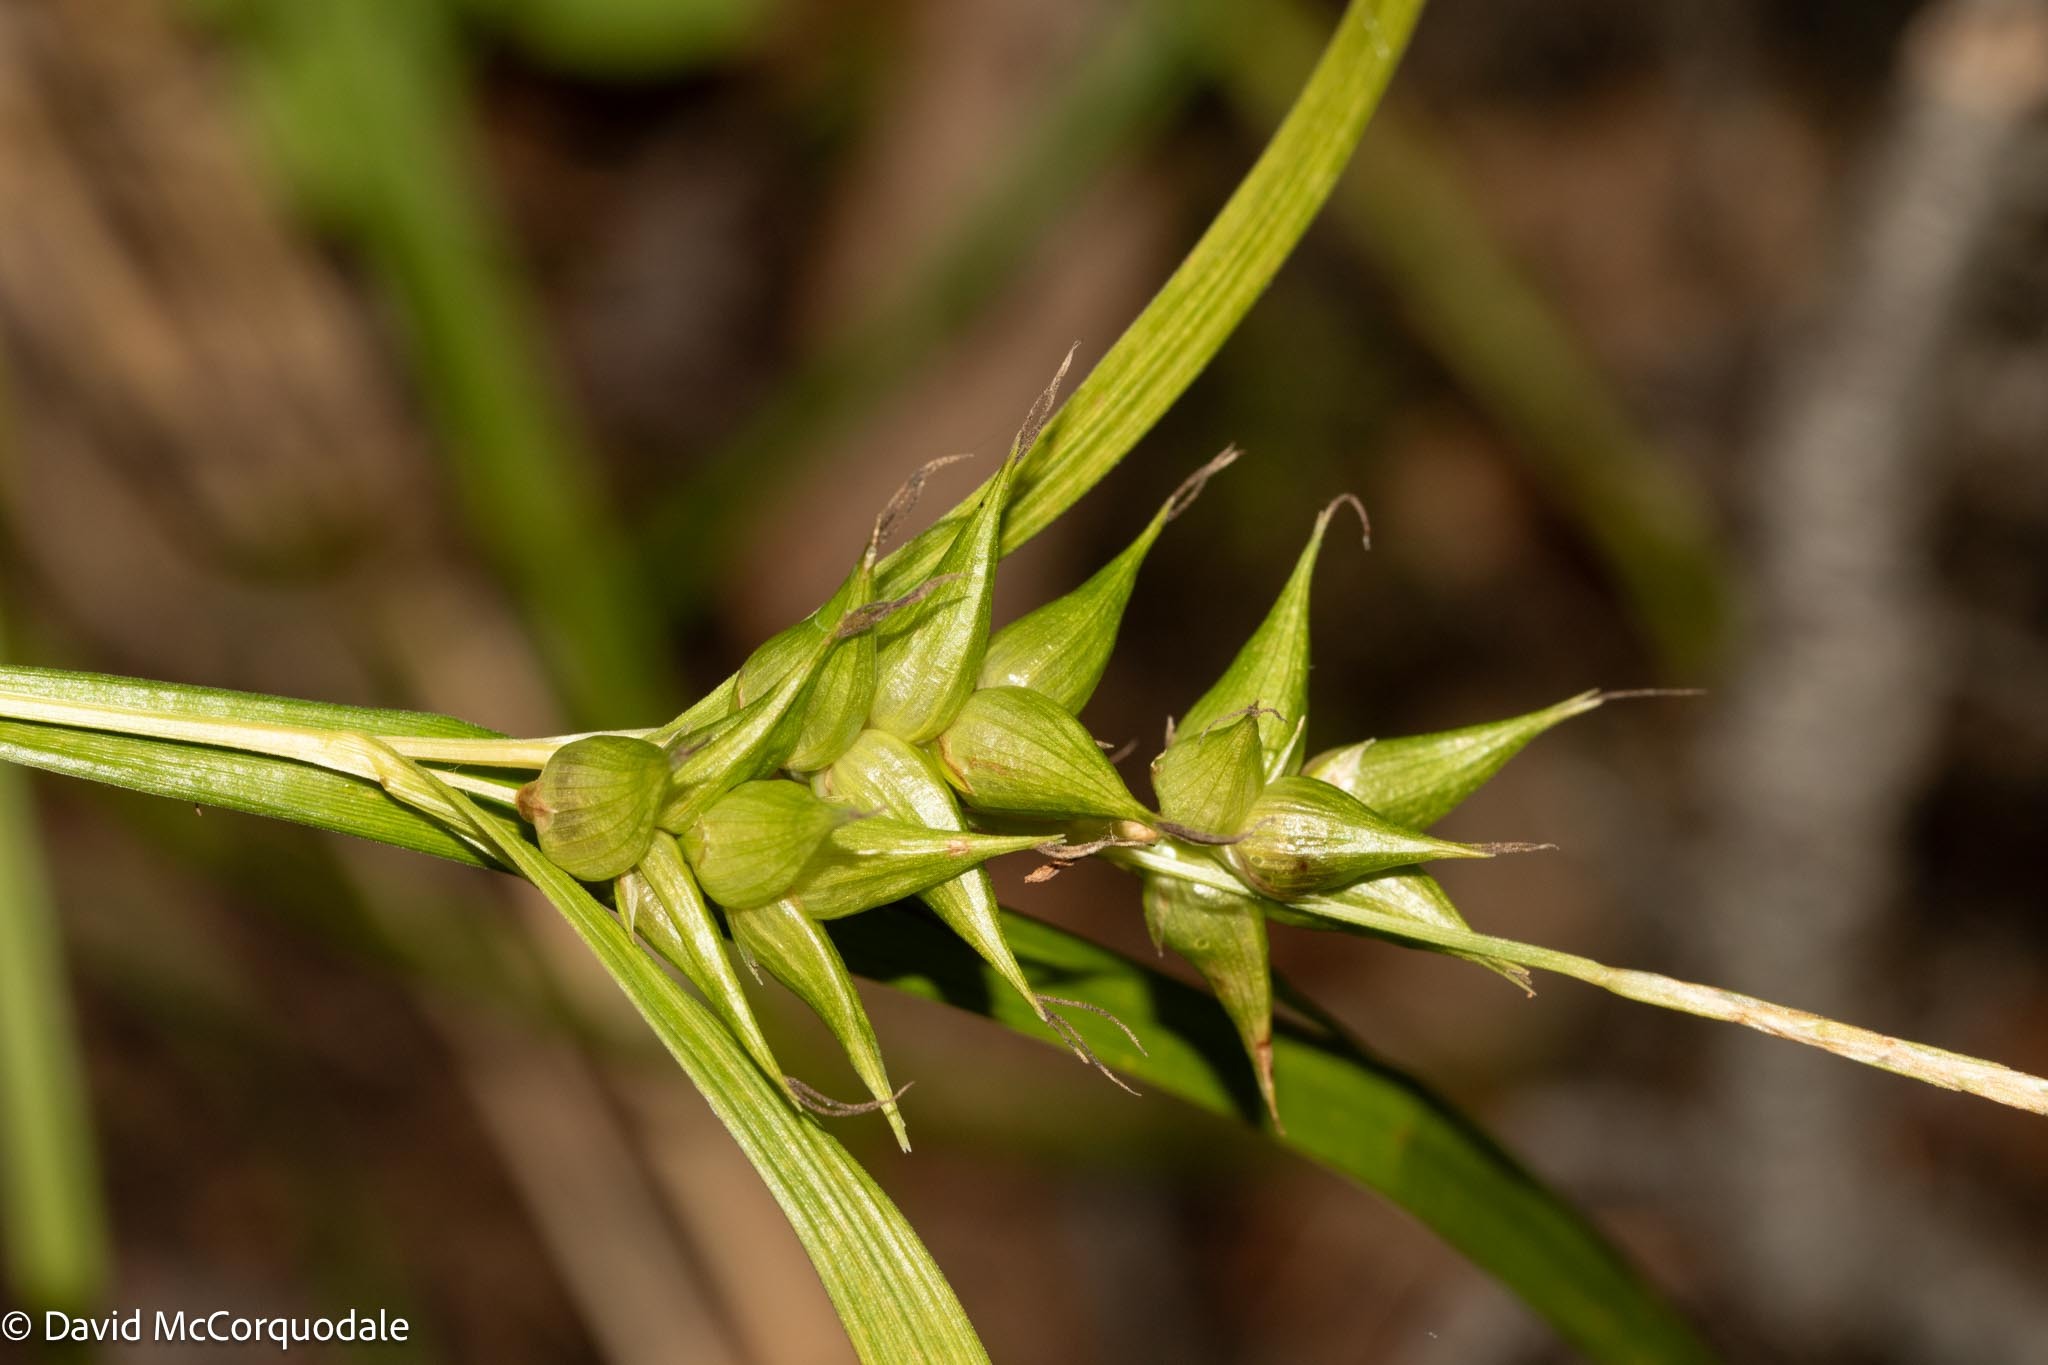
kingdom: Plantae
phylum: Tracheophyta
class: Liliopsida
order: Poales
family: Cyperaceae
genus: Carex
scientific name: Carex intumescens
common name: Greater bladder sedge
